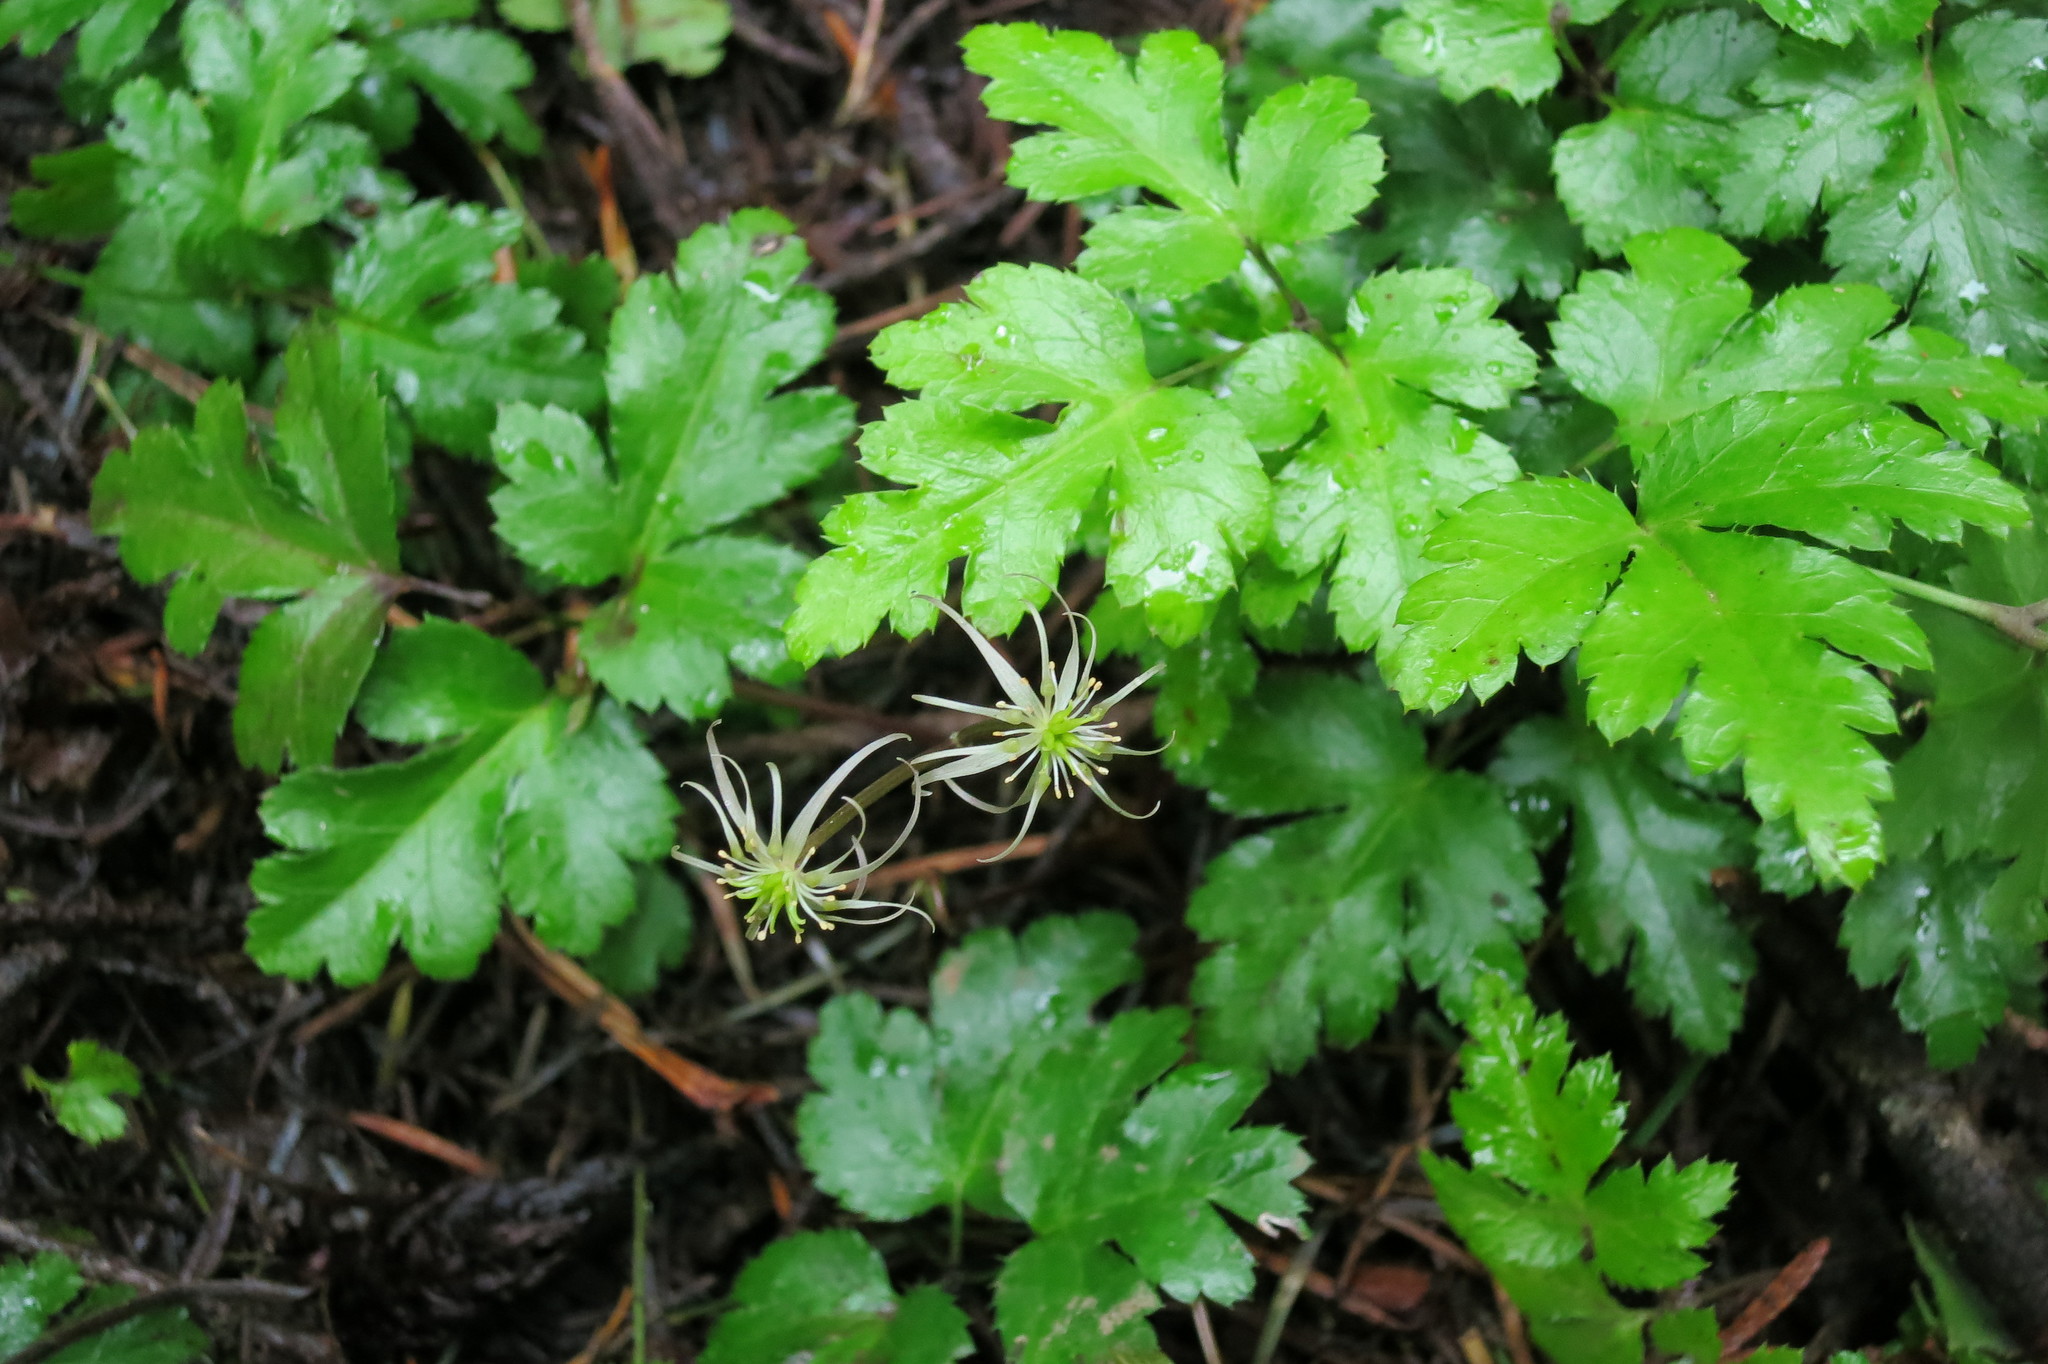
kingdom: Plantae
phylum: Tracheophyta
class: Magnoliopsida
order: Ranunculales
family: Ranunculaceae
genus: Coptis
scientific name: Coptis laciniata
